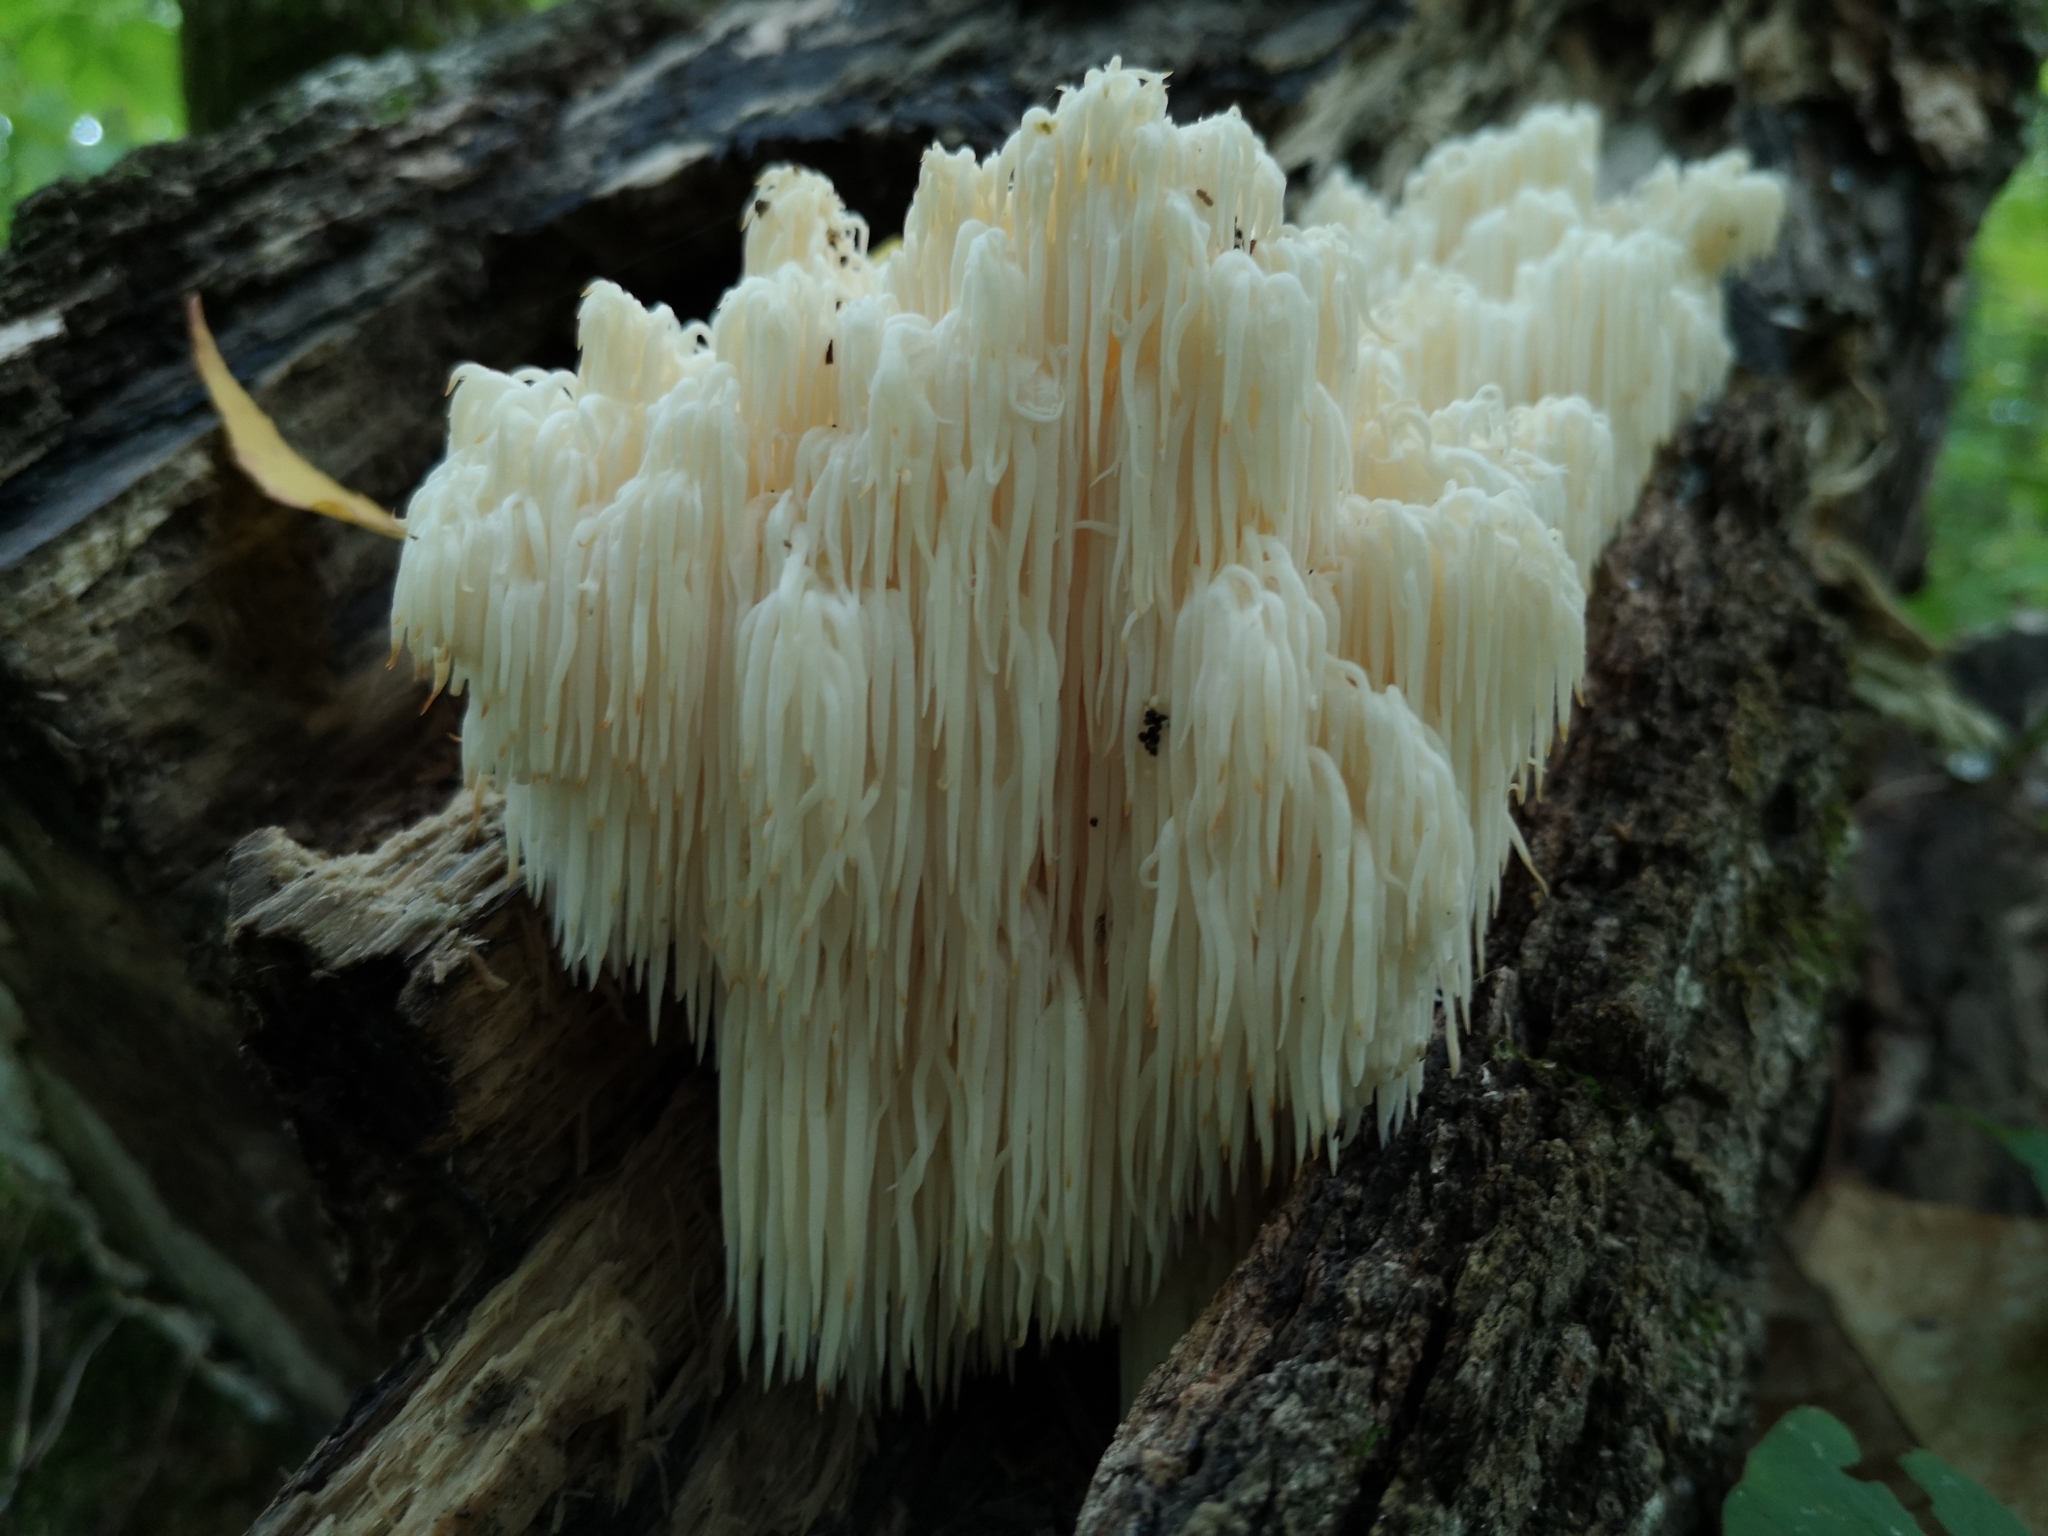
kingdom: Fungi
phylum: Basidiomycota
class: Agaricomycetes
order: Russulales
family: Hericiaceae
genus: Hericium
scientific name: Hericium americanum
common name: Bear's head tooth
